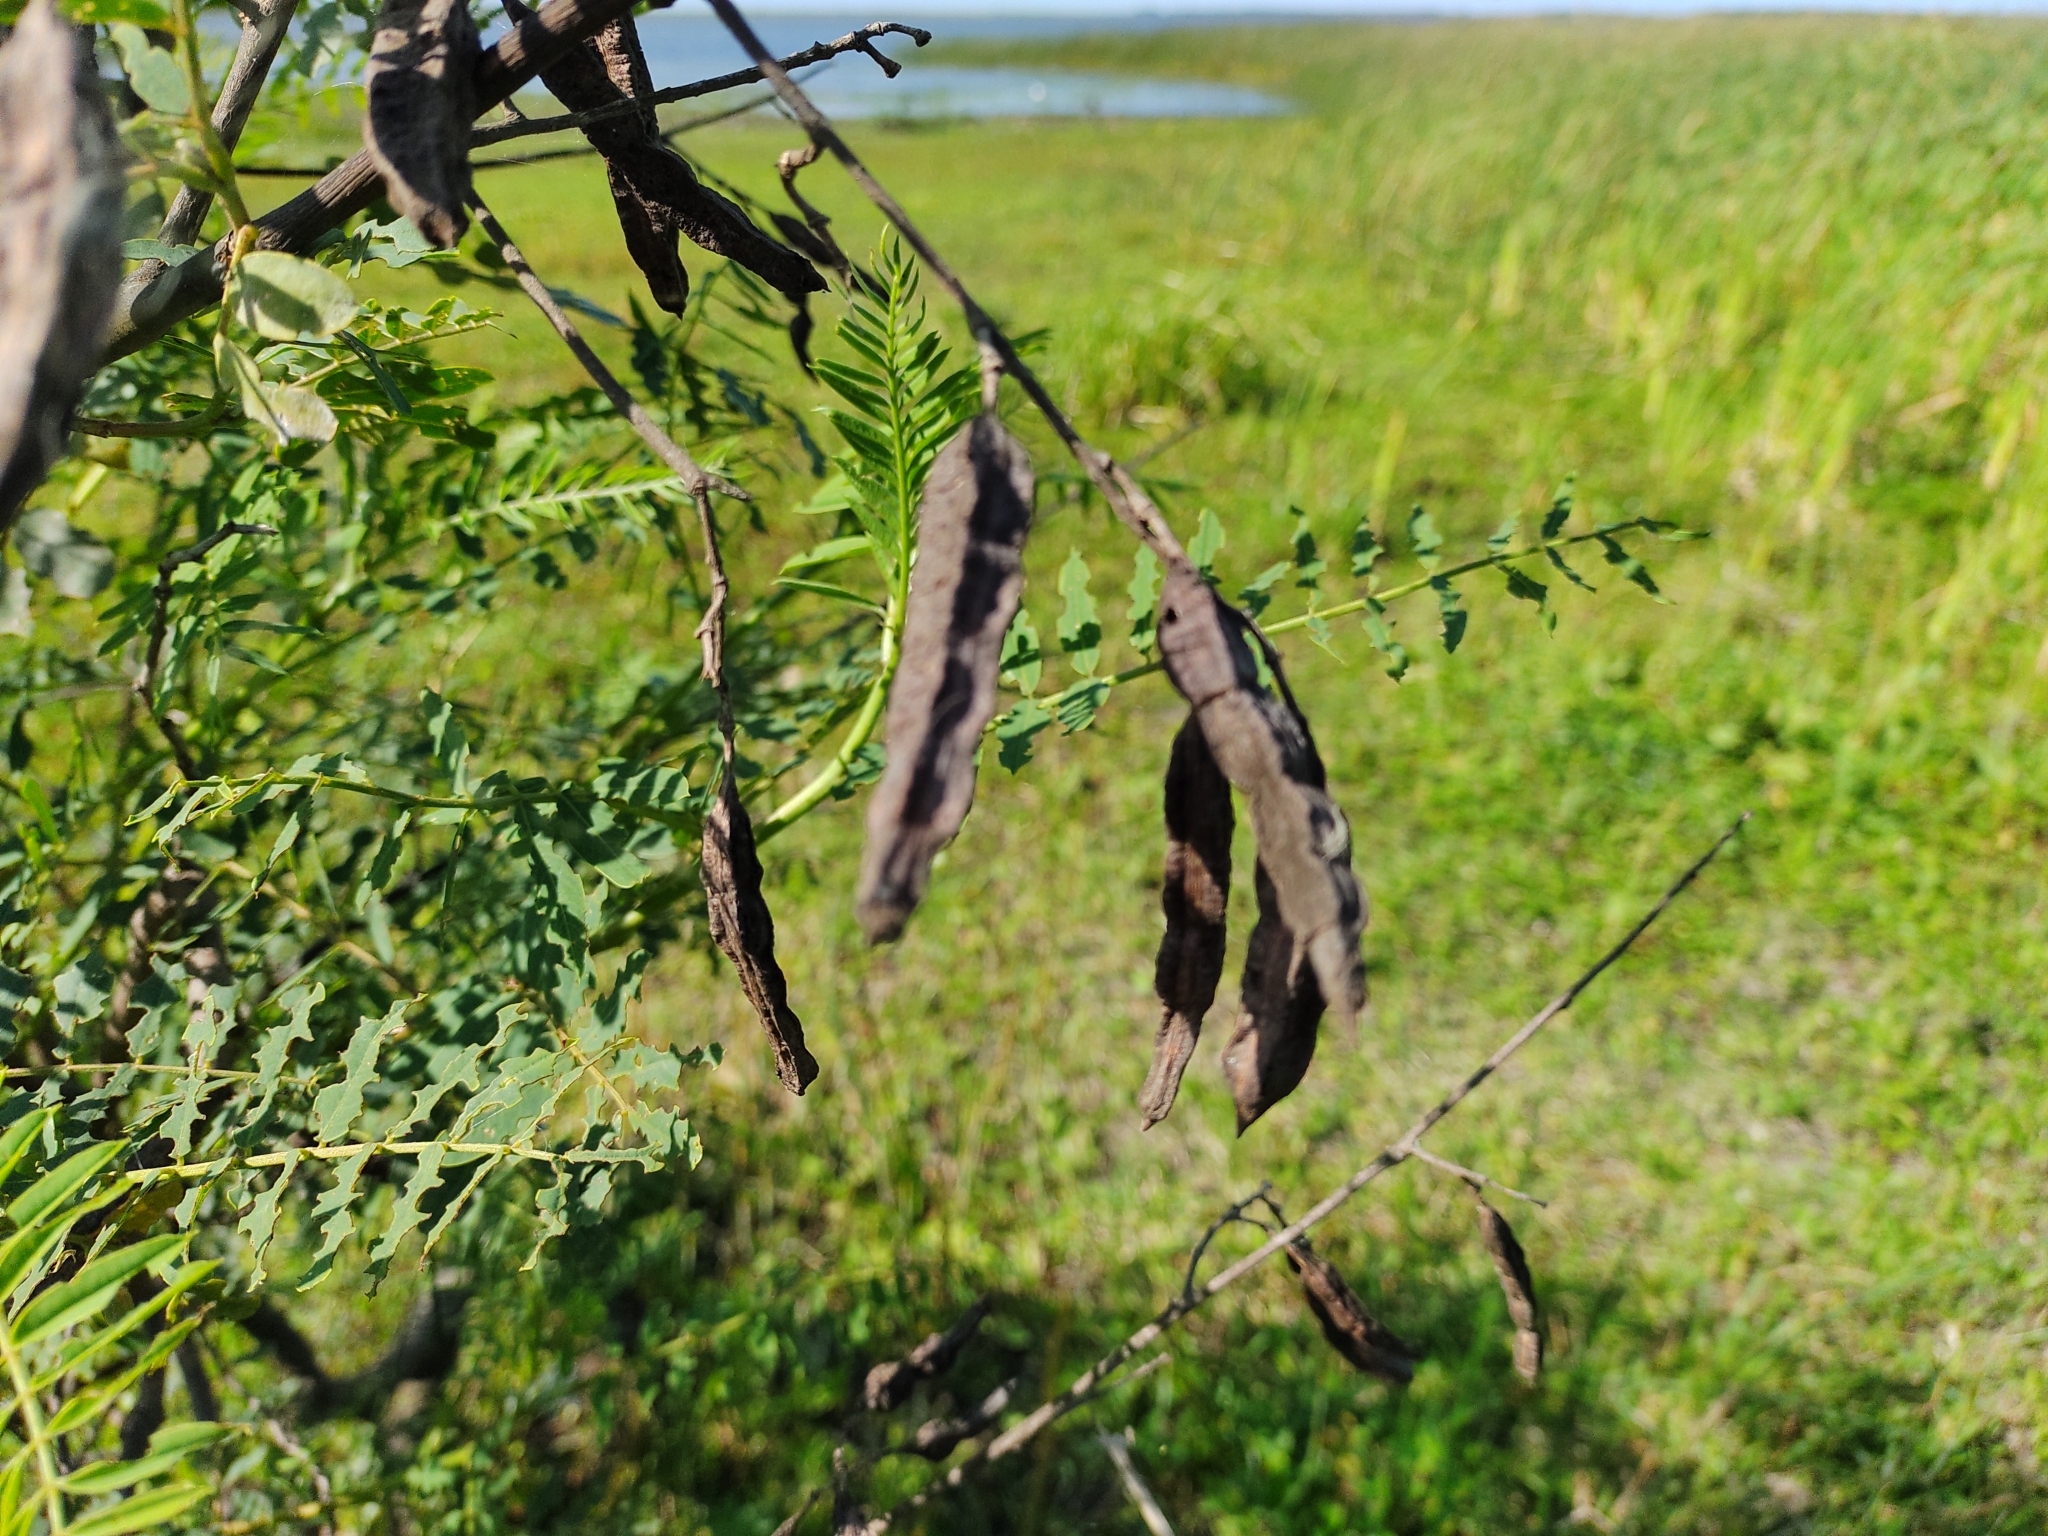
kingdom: Plantae
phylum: Tracheophyta
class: Magnoliopsida
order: Fabales
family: Fabaceae
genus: Sesbania
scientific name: Sesbania virgata
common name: Wand riverhemp
